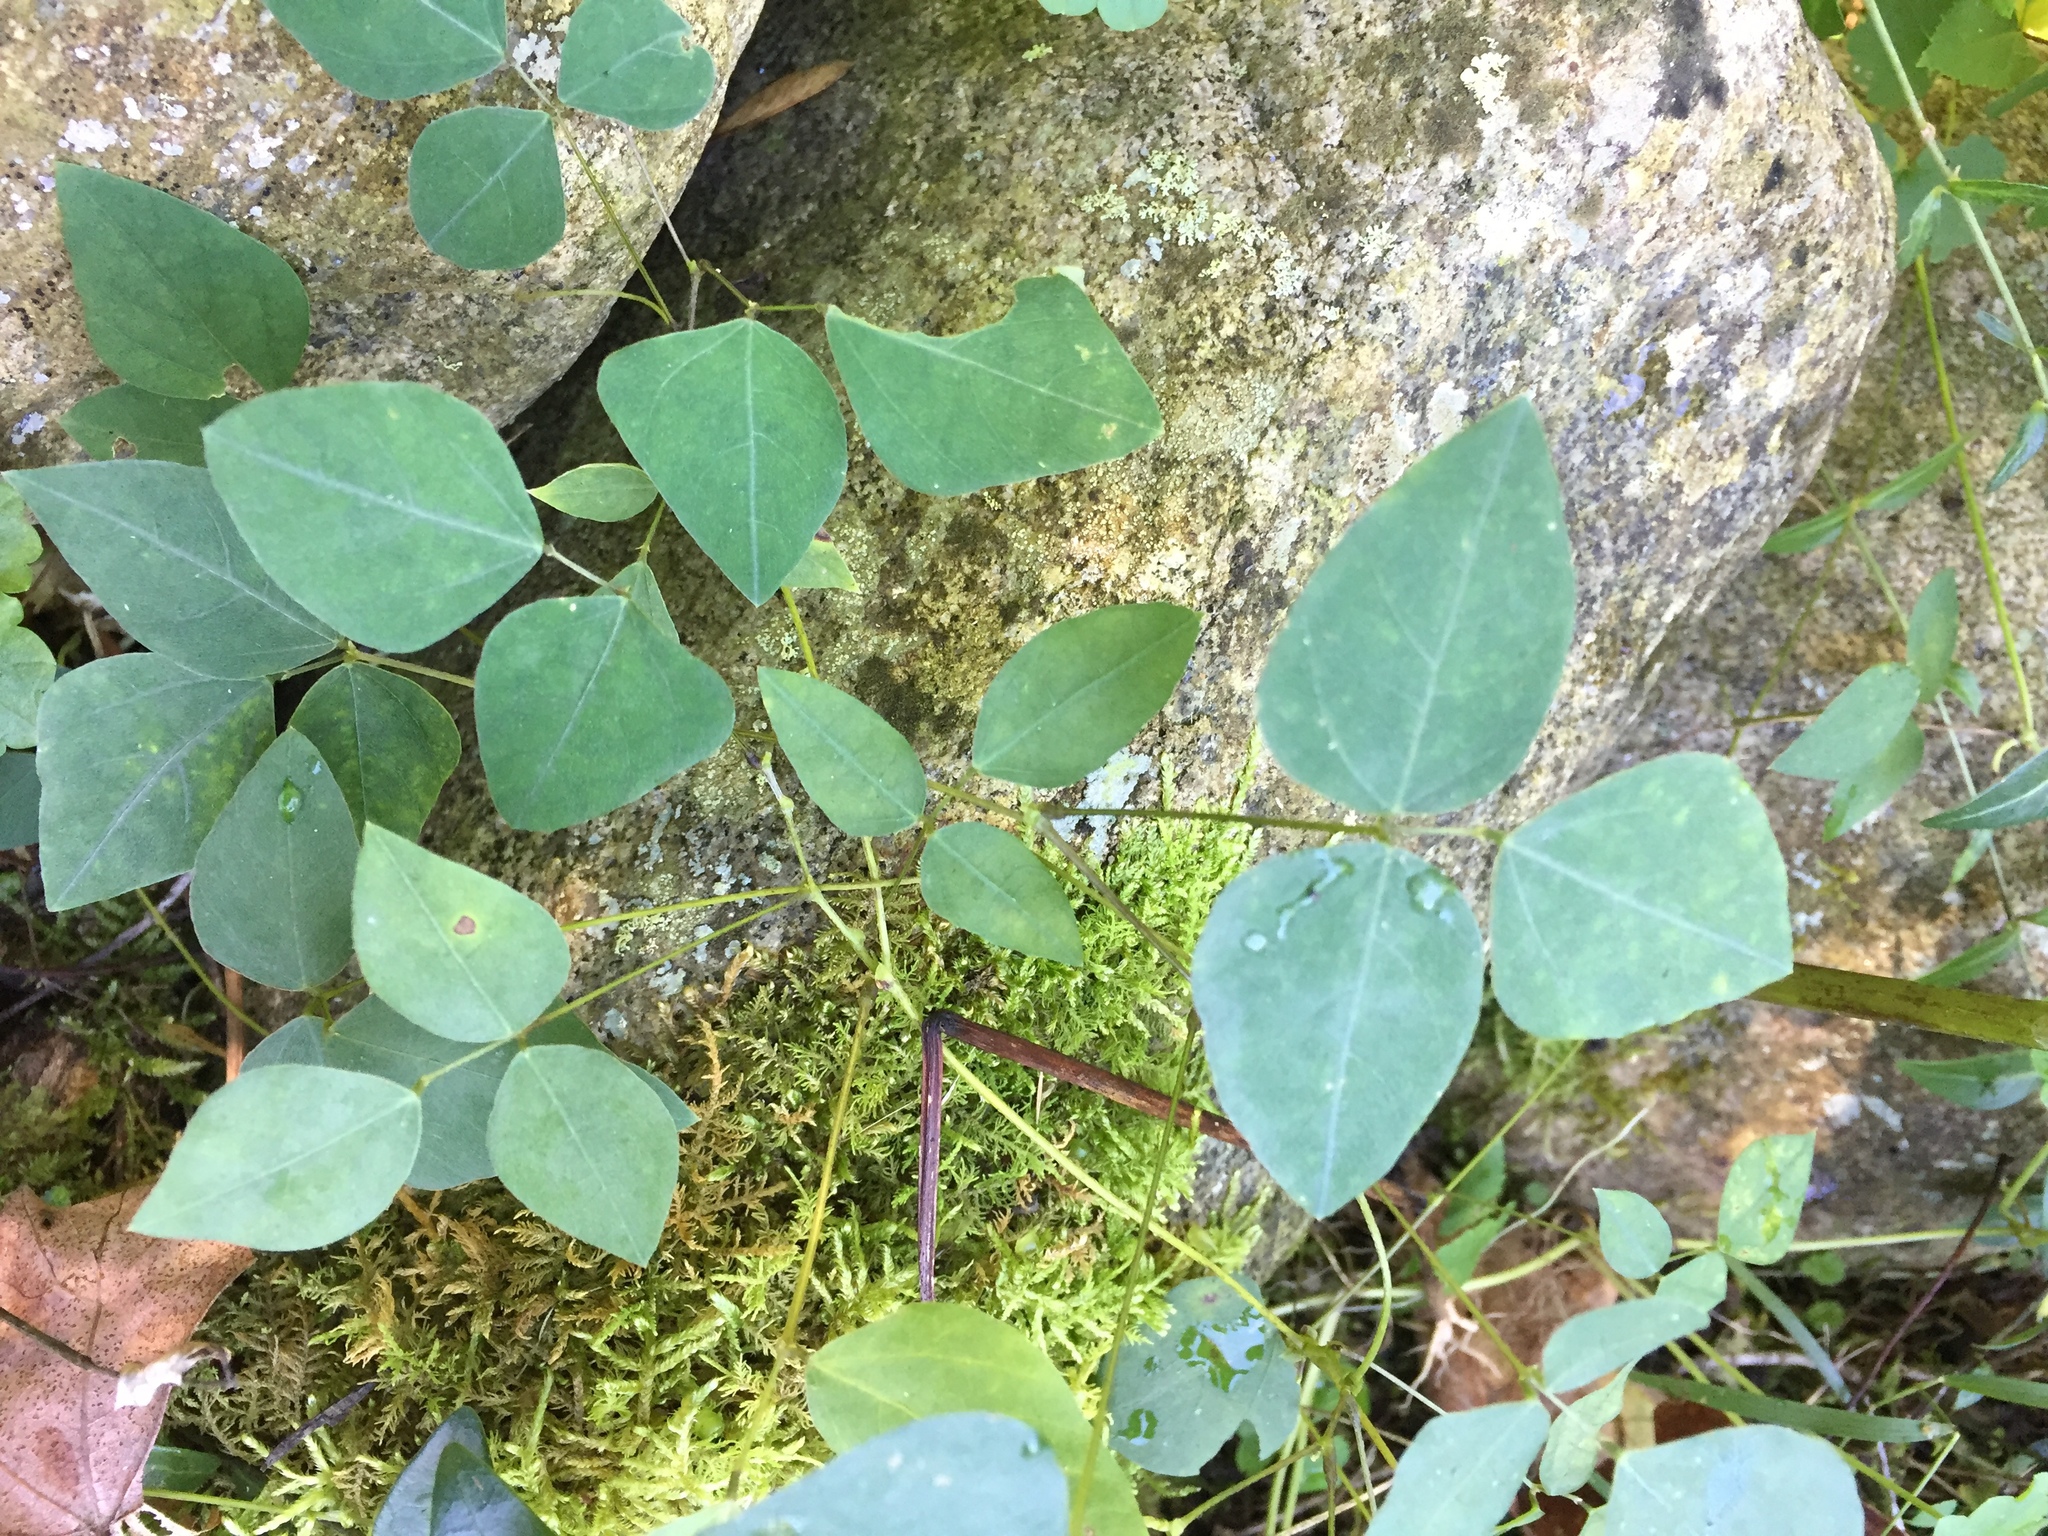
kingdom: Plantae
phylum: Tracheophyta
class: Magnoliopsida
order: Fabales
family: Fabaceae
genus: Amphicarpaea
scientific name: Amphicarpaea bracteata
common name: American hog peanut
